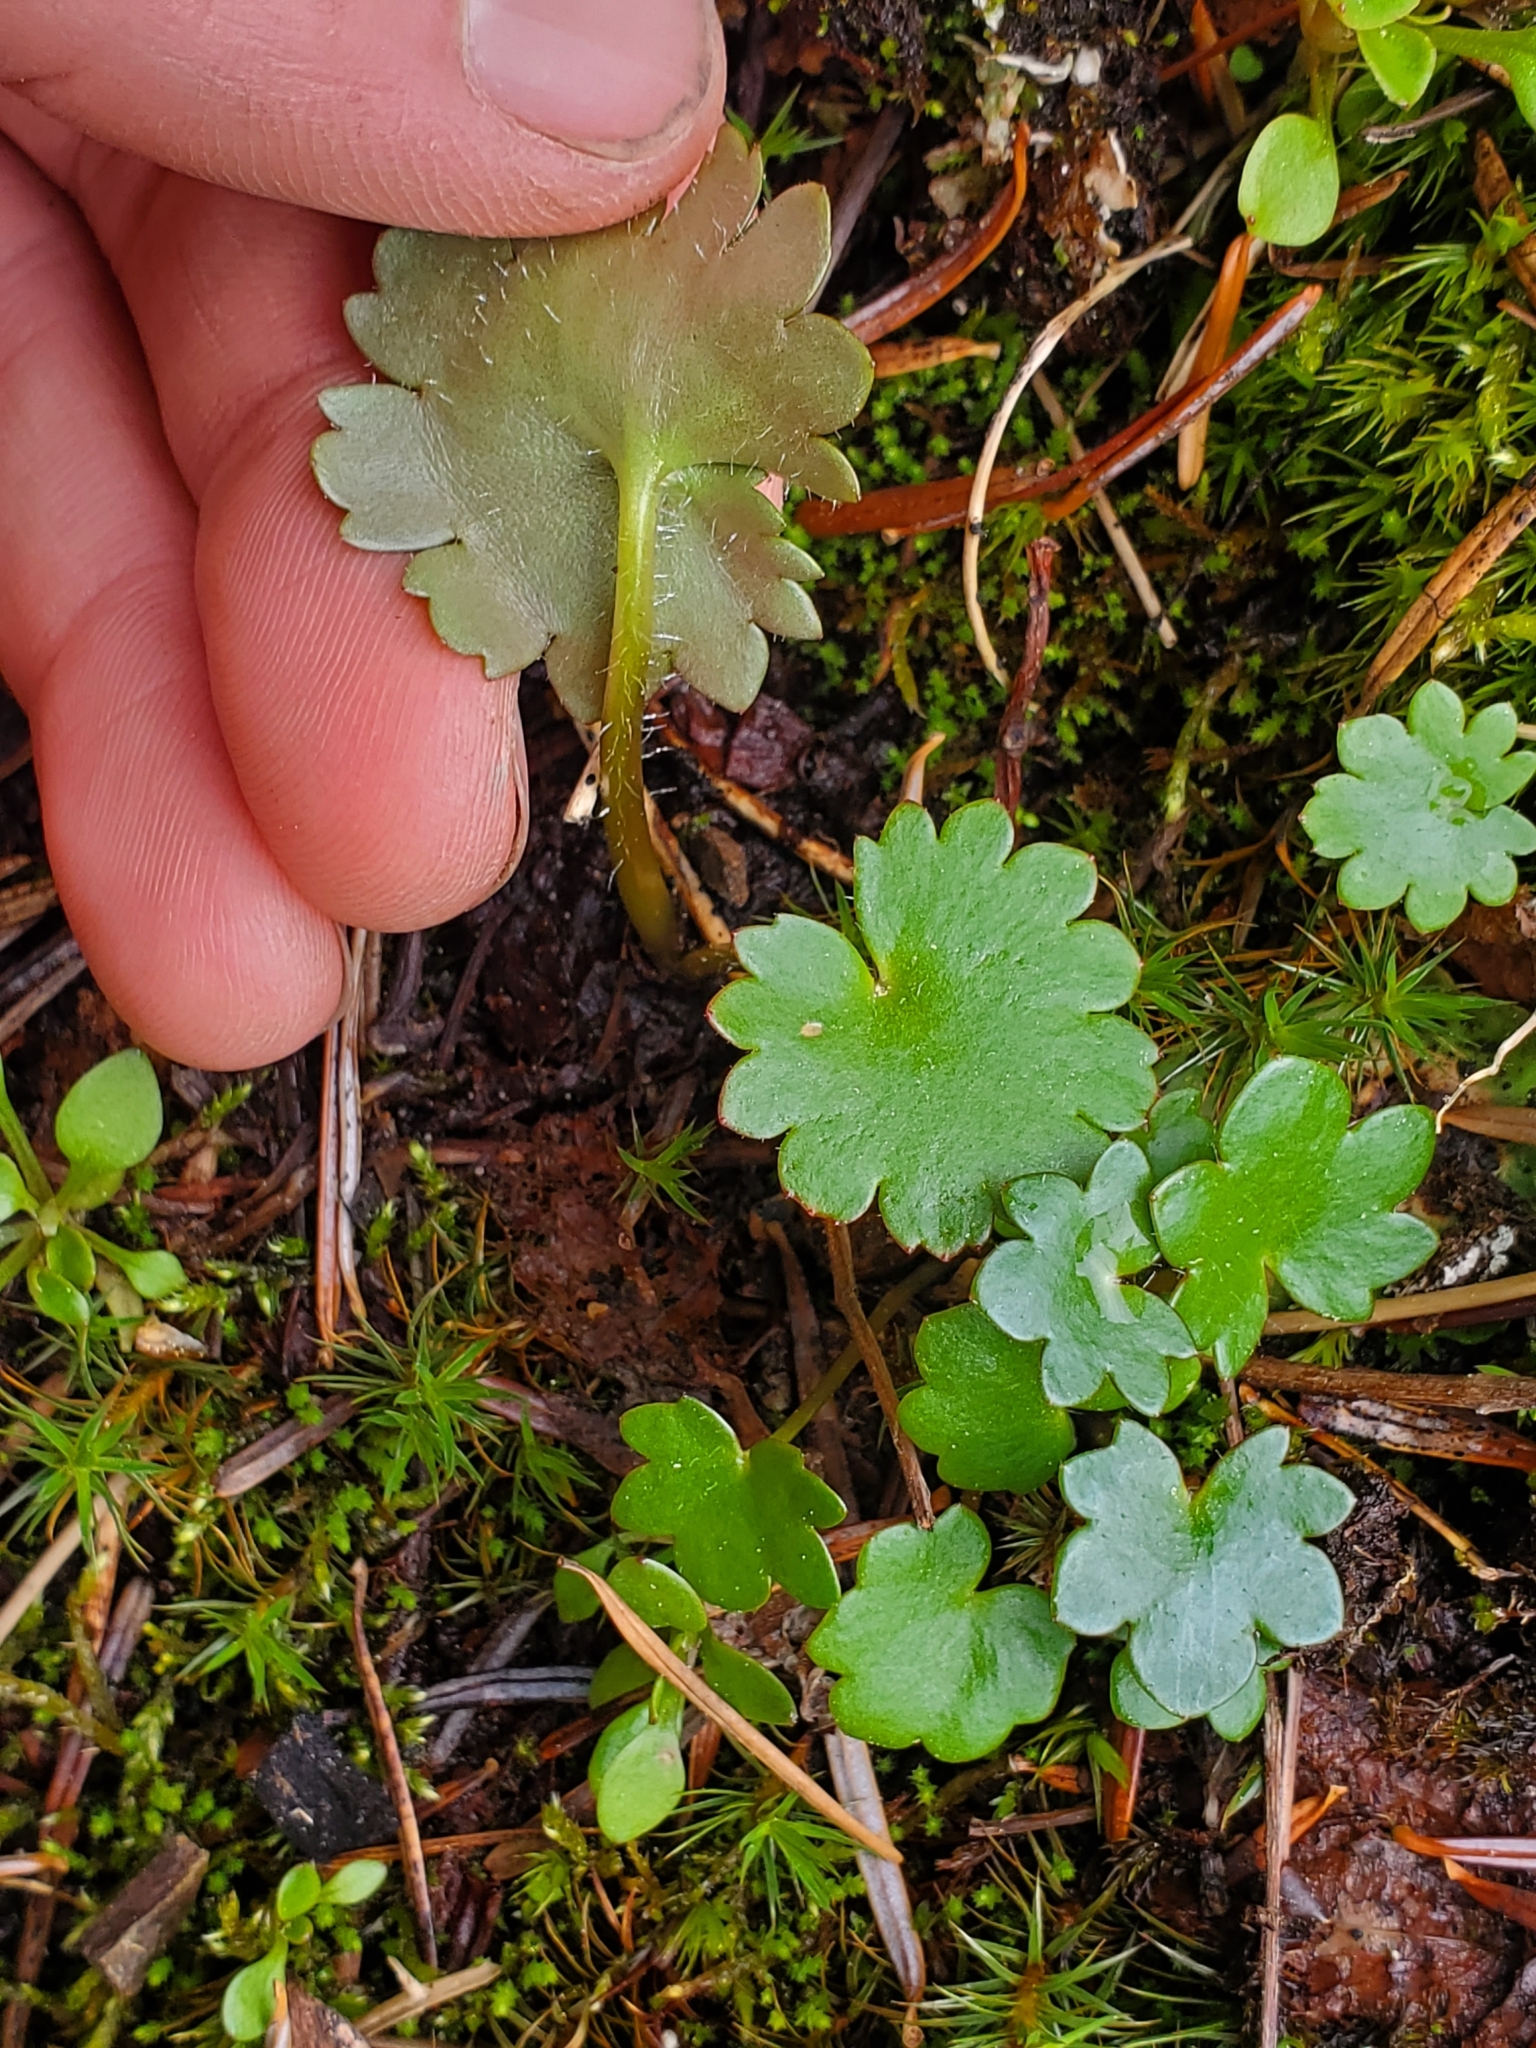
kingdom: Plantae
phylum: Tracheophyta
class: Magnoliopsida
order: Saxifragales
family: Saxifragaceae
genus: Micranthes
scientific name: Micranthes mertensiana
